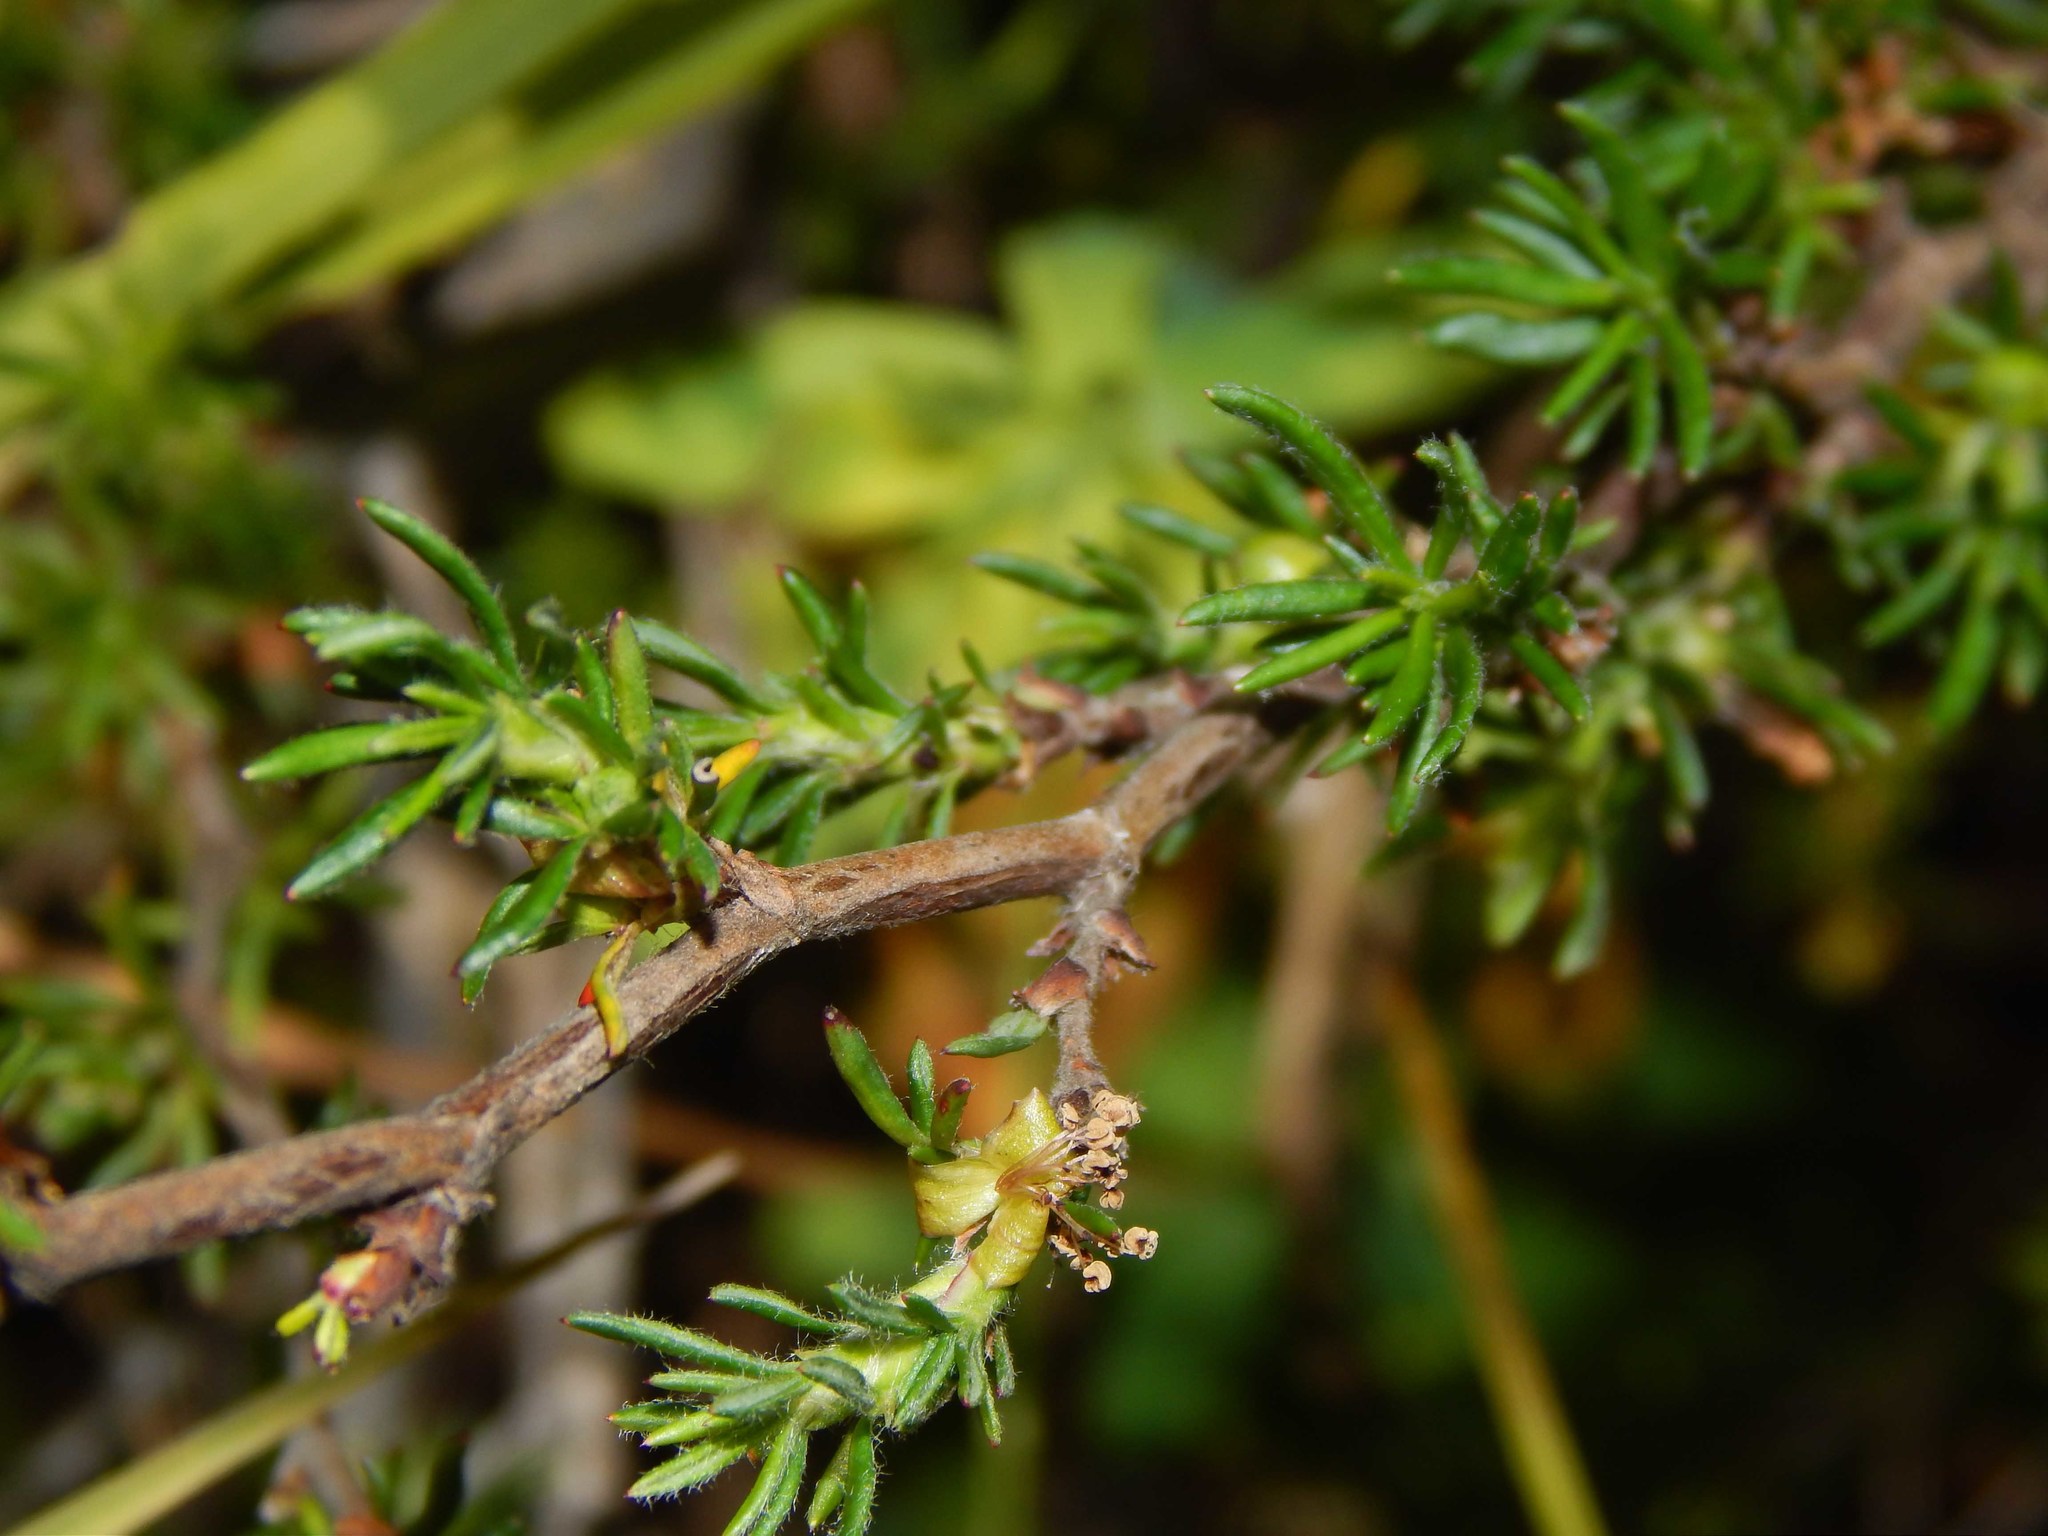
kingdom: Plantae
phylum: Tracheophyta
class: Magnoliopsida
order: Rosales
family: Rosaceae
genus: Cliffortia
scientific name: Cliffortia hirta
